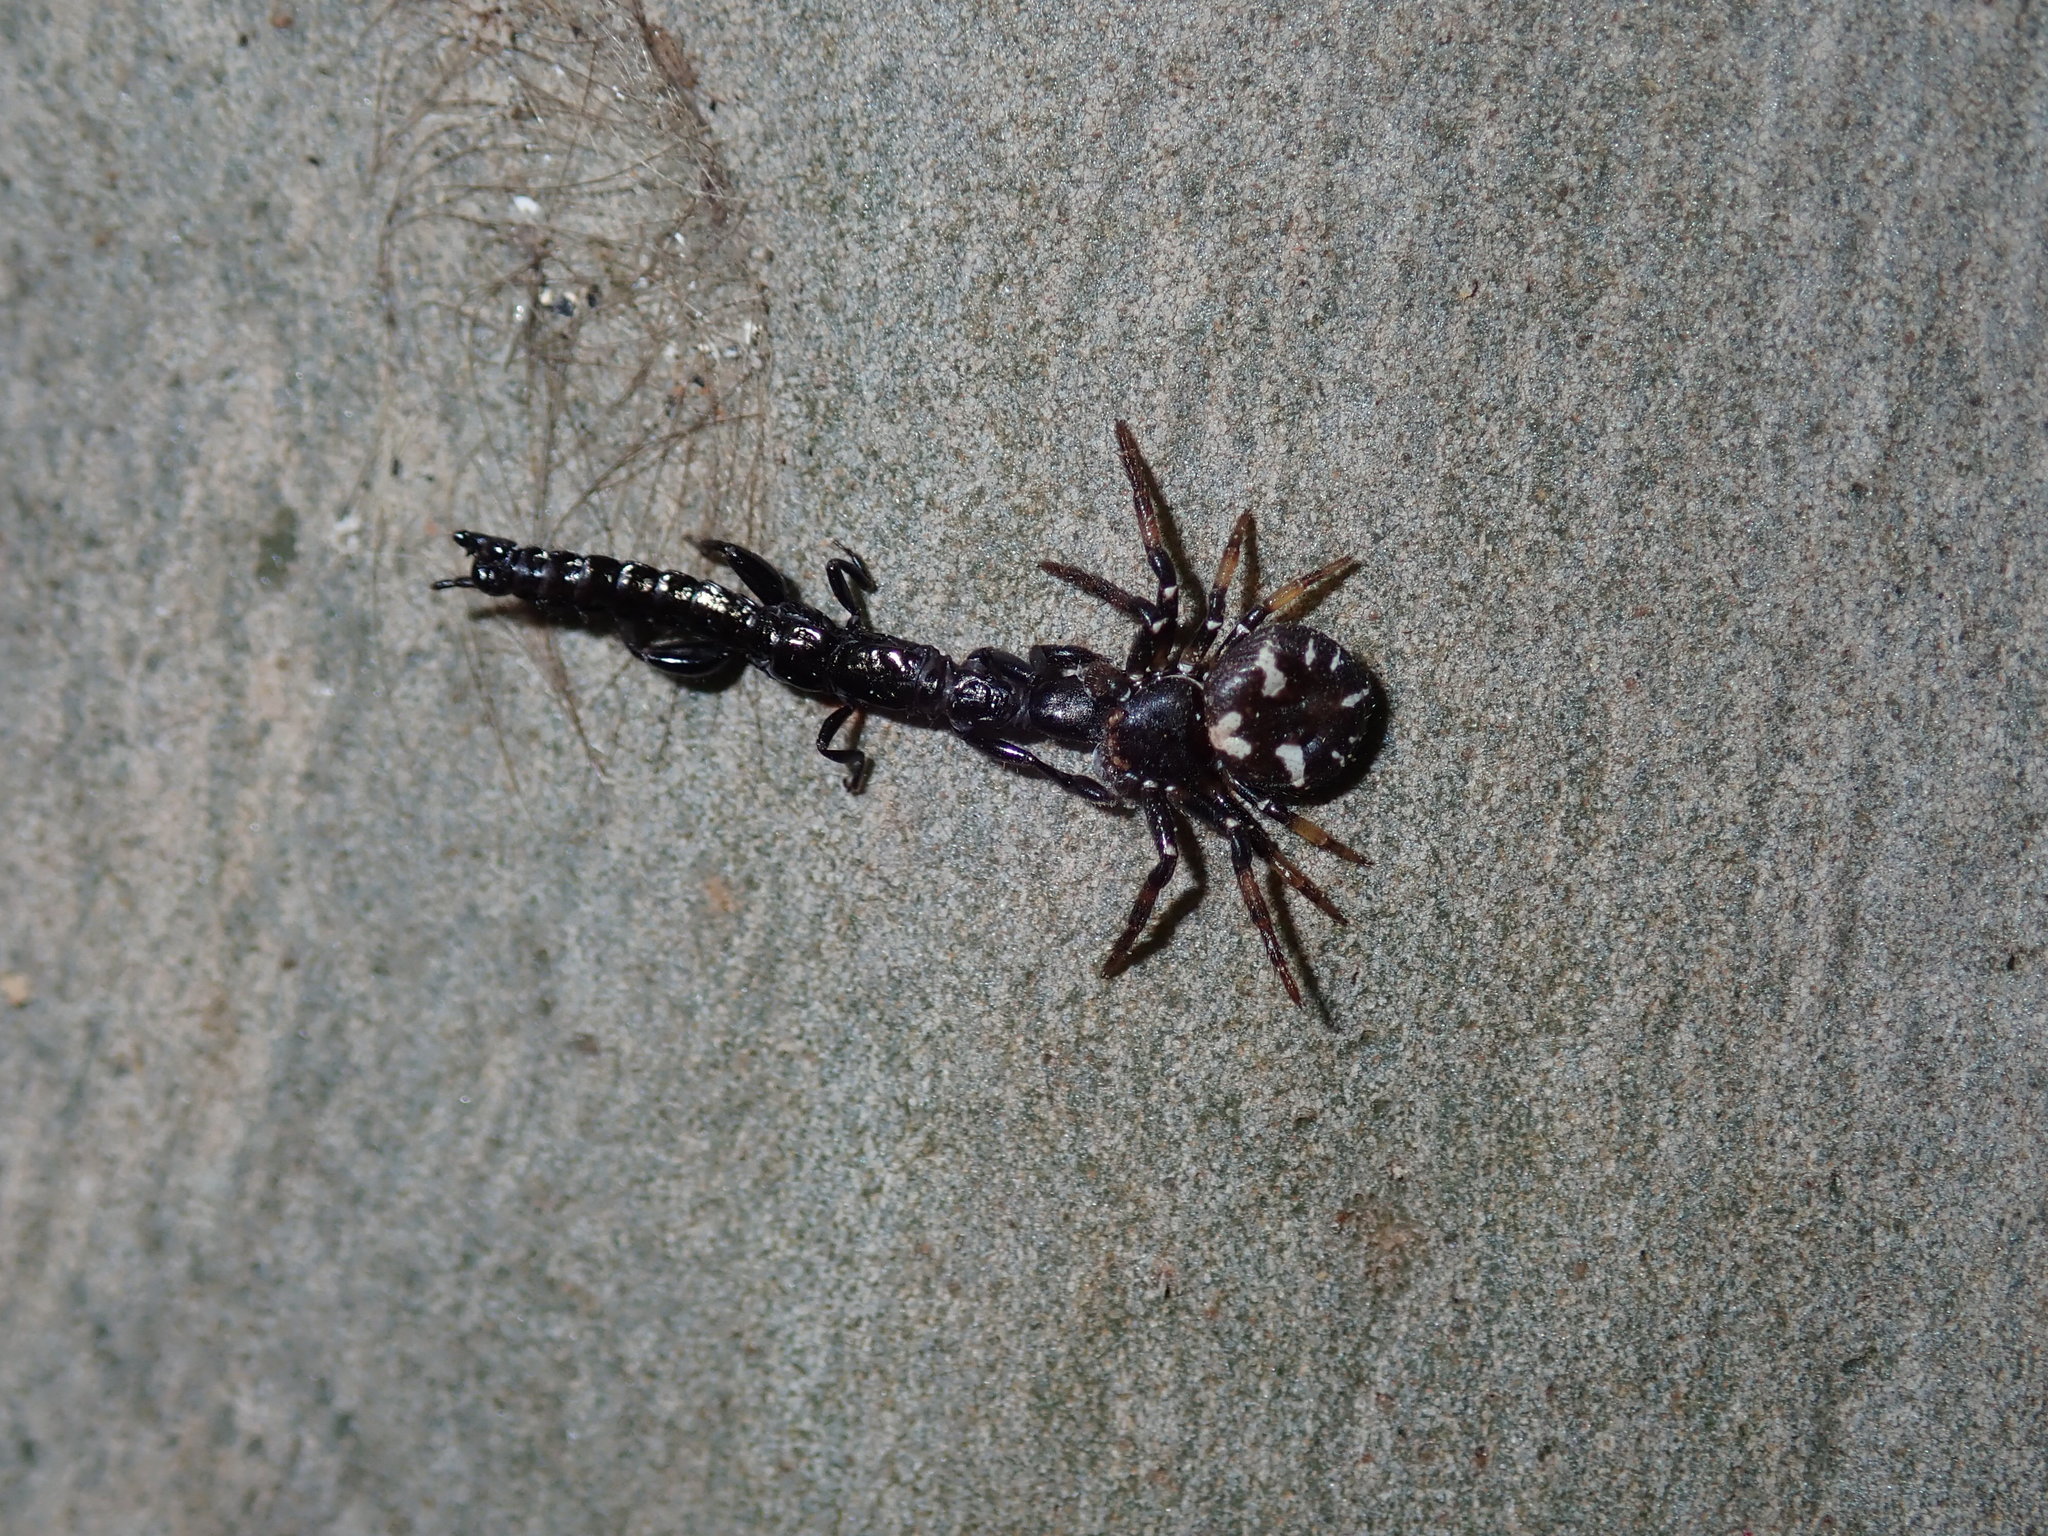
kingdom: Animalia
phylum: Arthropoda
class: Arachnida
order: Araneae
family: Thomisidae
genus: Tharpyna
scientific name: Tharpyna decorata
